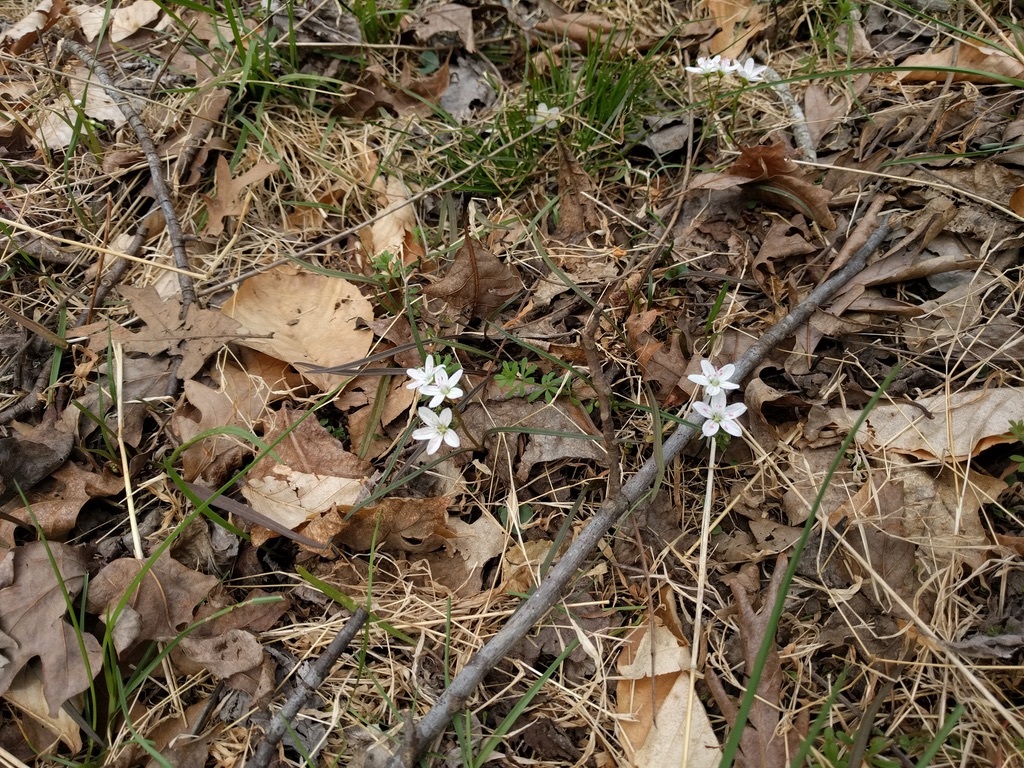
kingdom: Plantae
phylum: Tracheophyta
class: Magnoliopsida
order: Caryophyllales
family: Montiaceae
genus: Claytonia
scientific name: Claytonia virginica
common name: Virginia springbeauty
